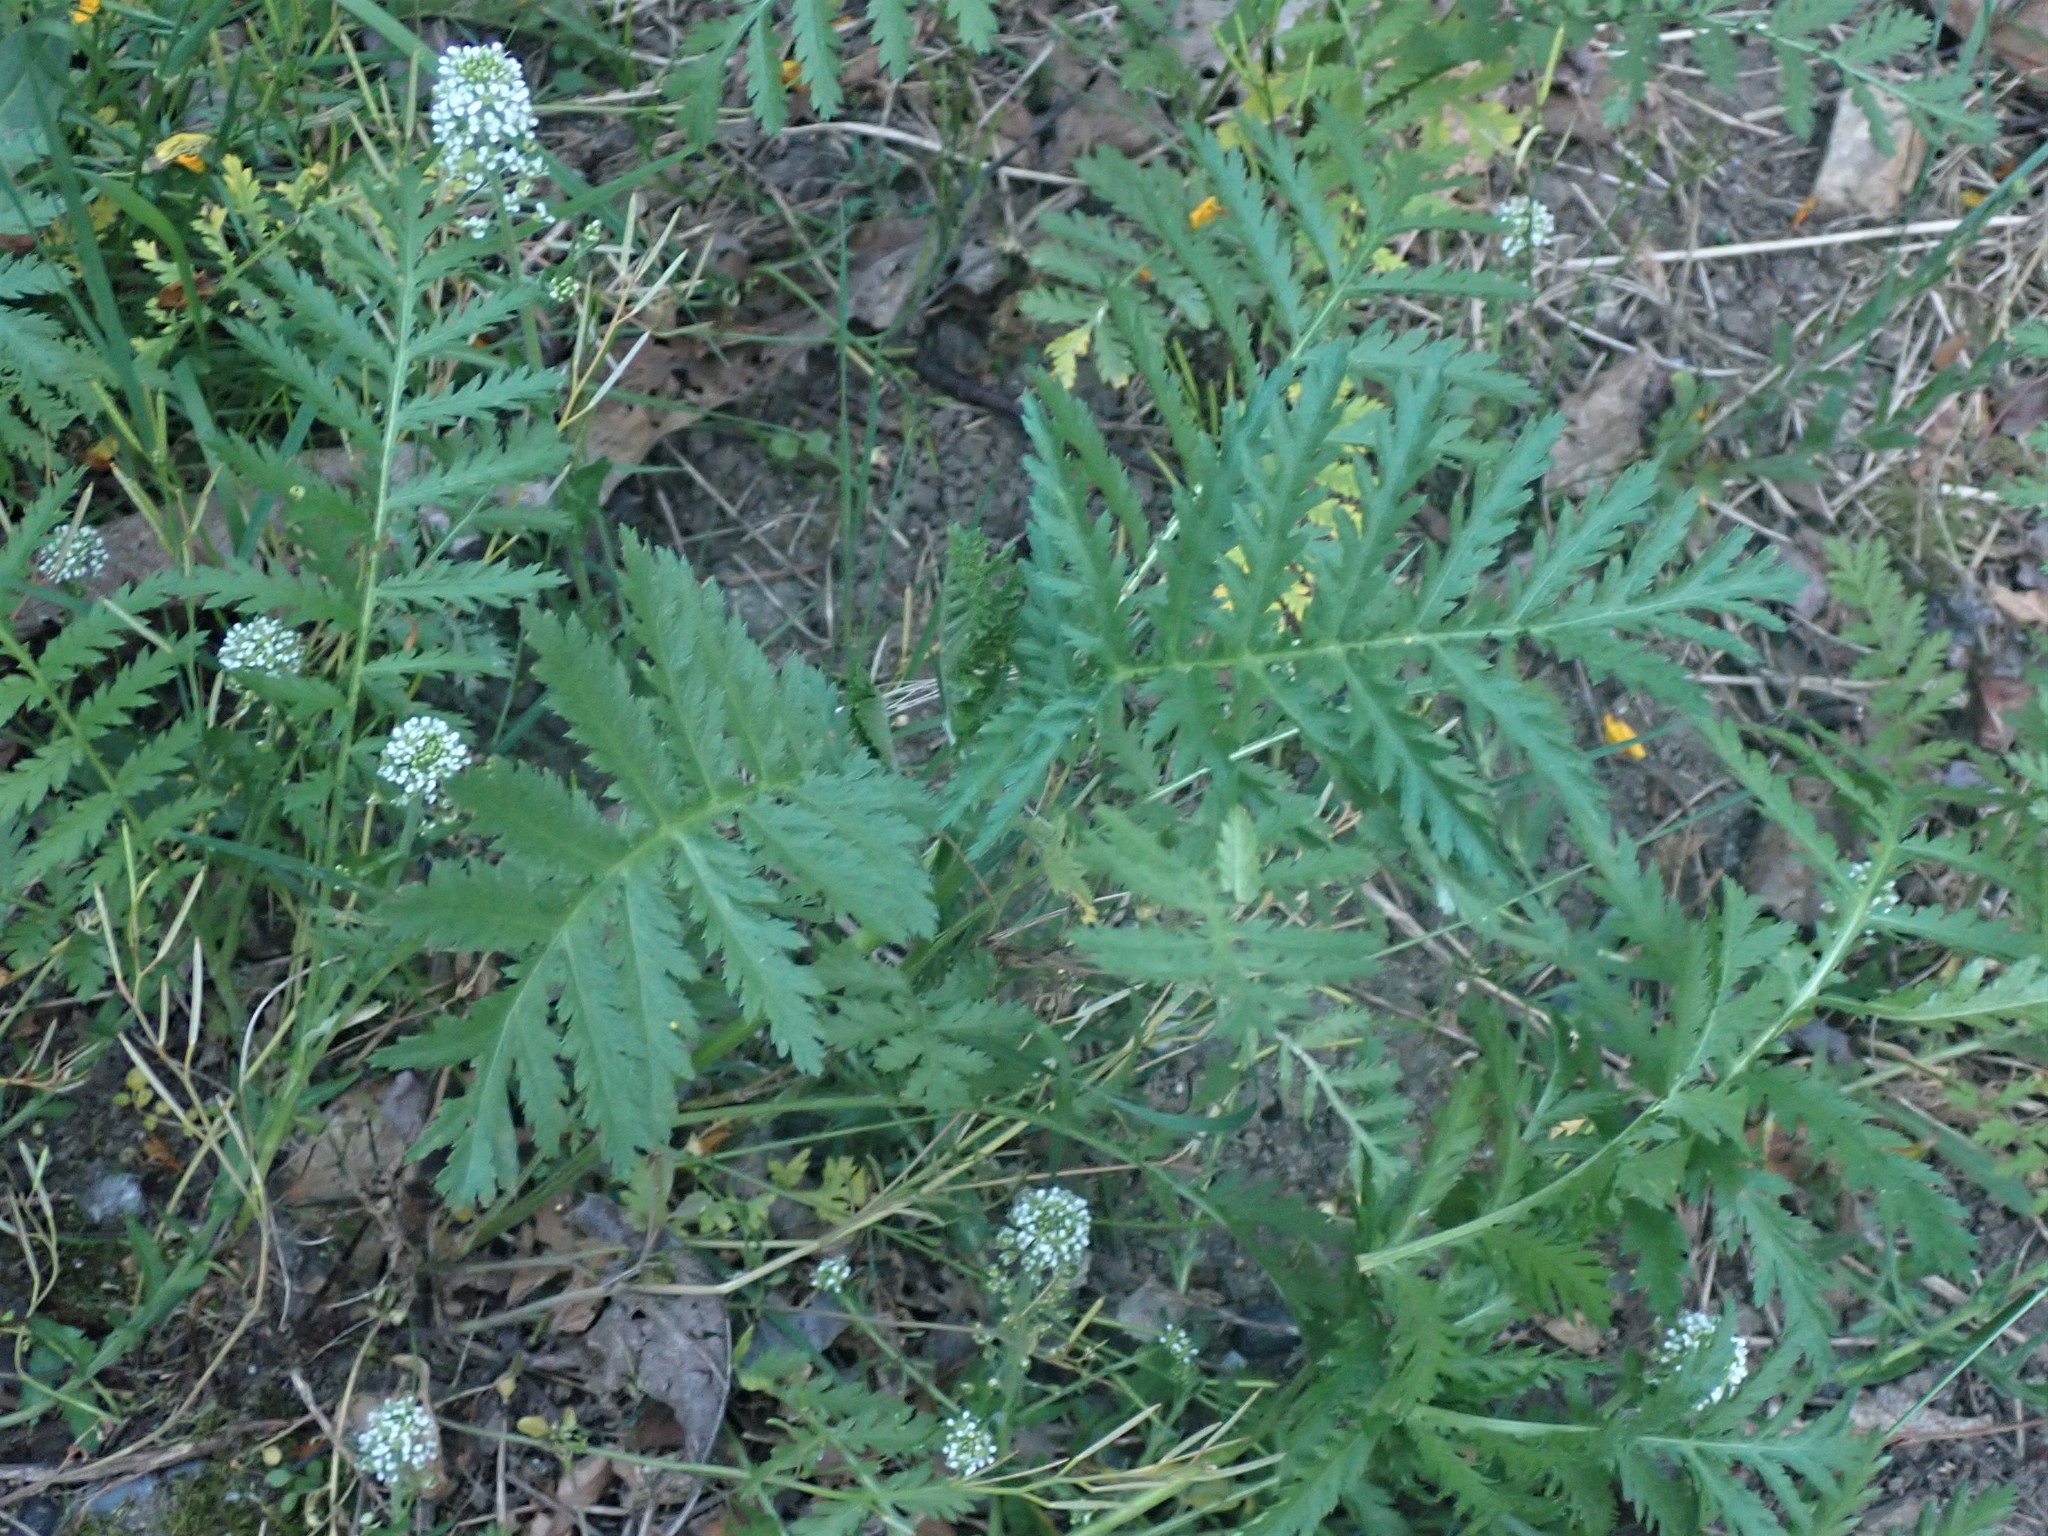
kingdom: Plantae
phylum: Tracheophyta
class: Magnoliopsida
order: Asterales
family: Asteraceae
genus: Tanacetum
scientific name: Tanacetum vulgare
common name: Common tansy
